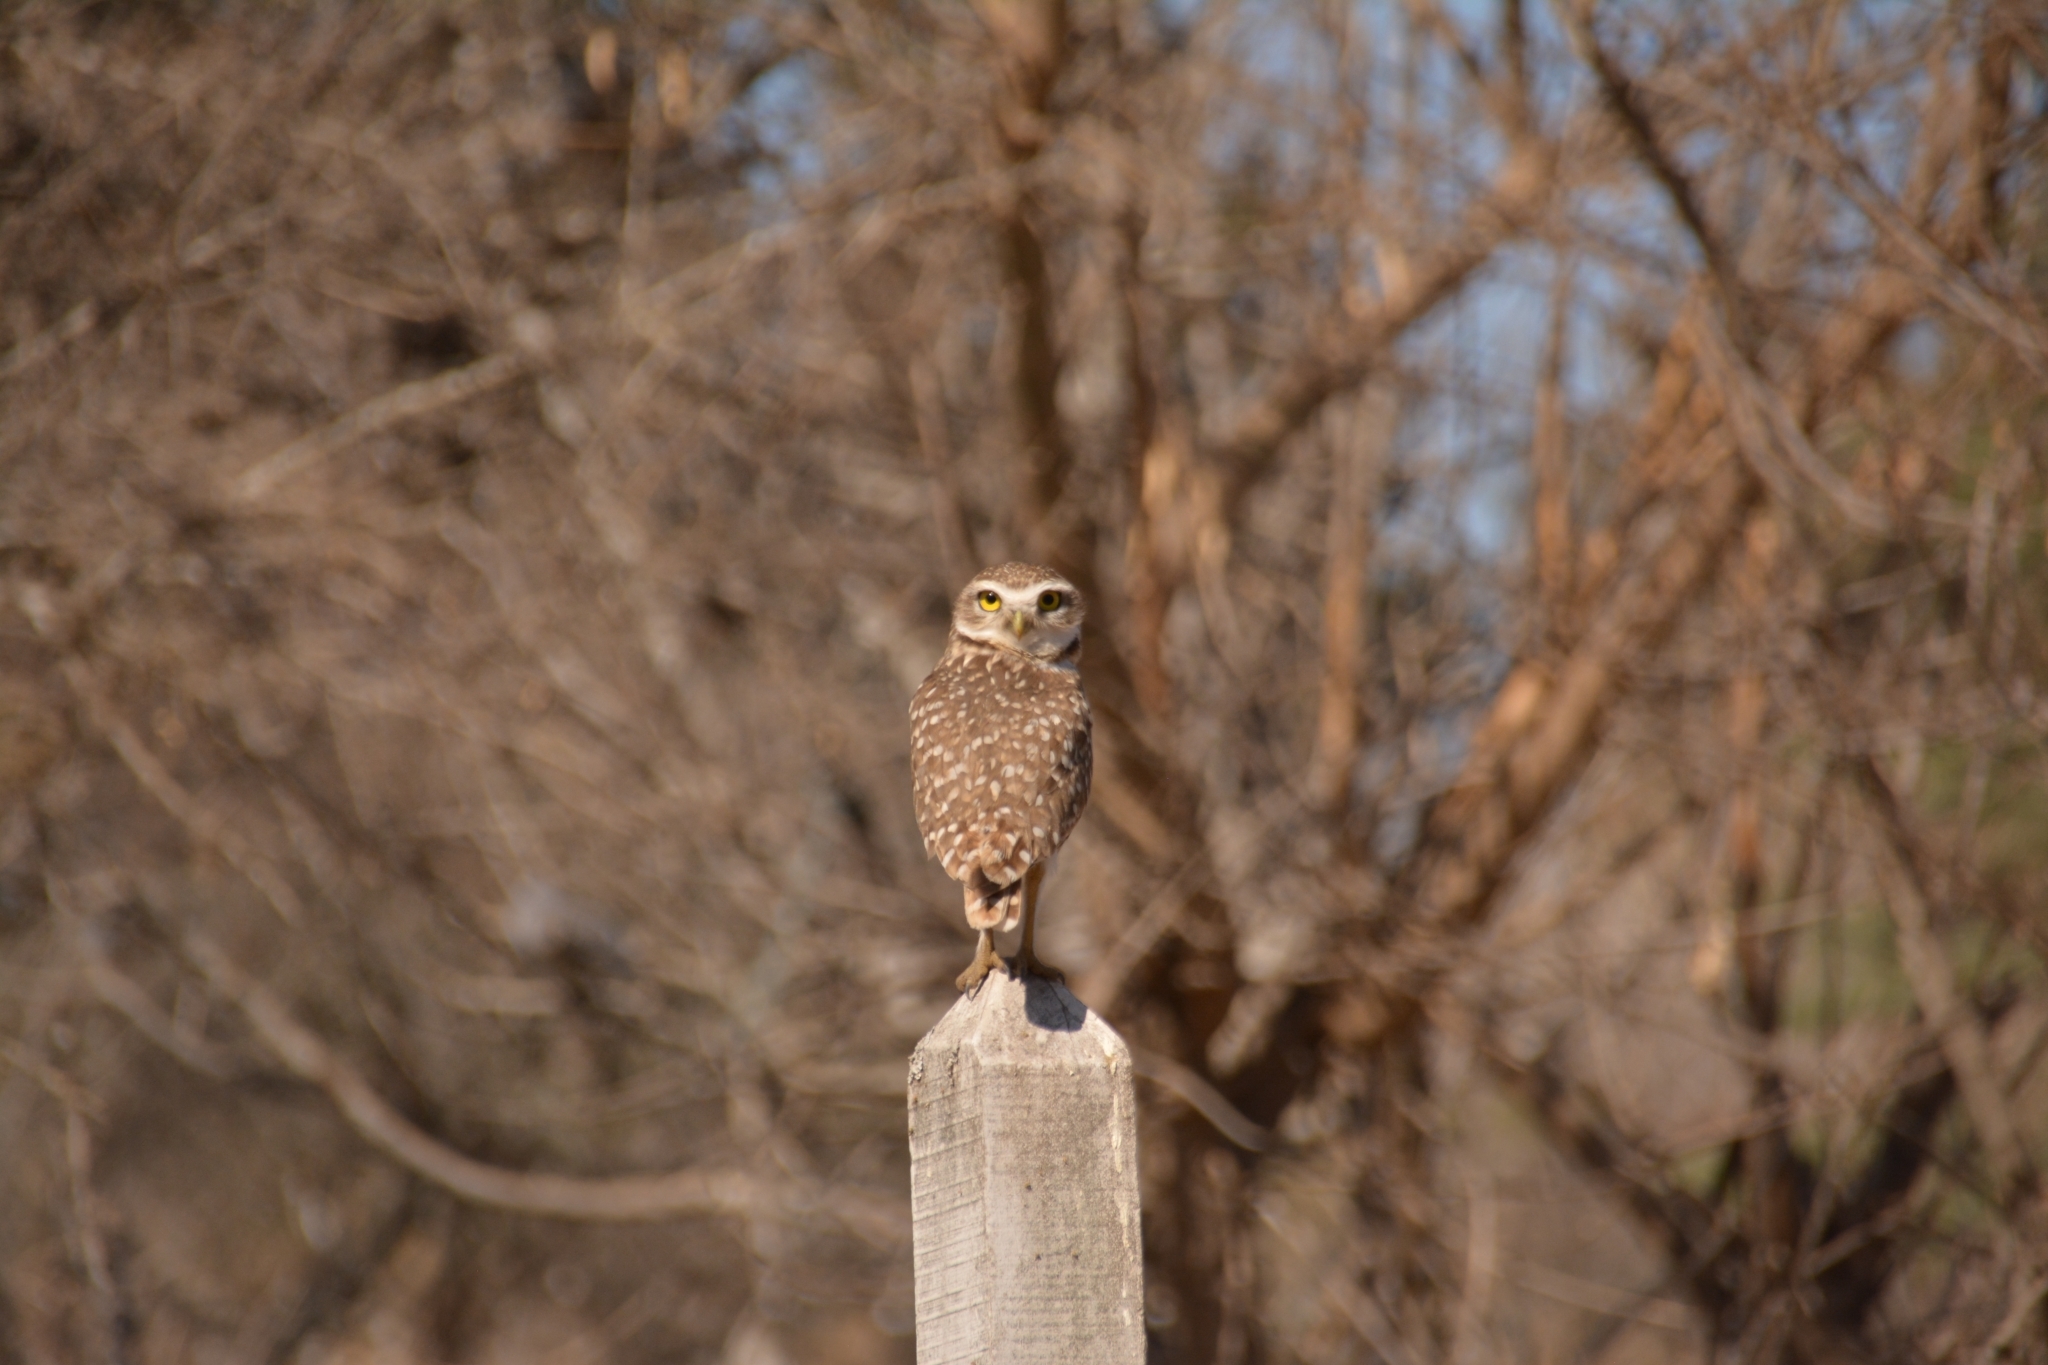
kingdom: Animalia
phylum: Chordata
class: Aves
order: Strigiformes
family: Strigidae
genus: Athene
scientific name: Athene cunicularia
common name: Burrowing owl
